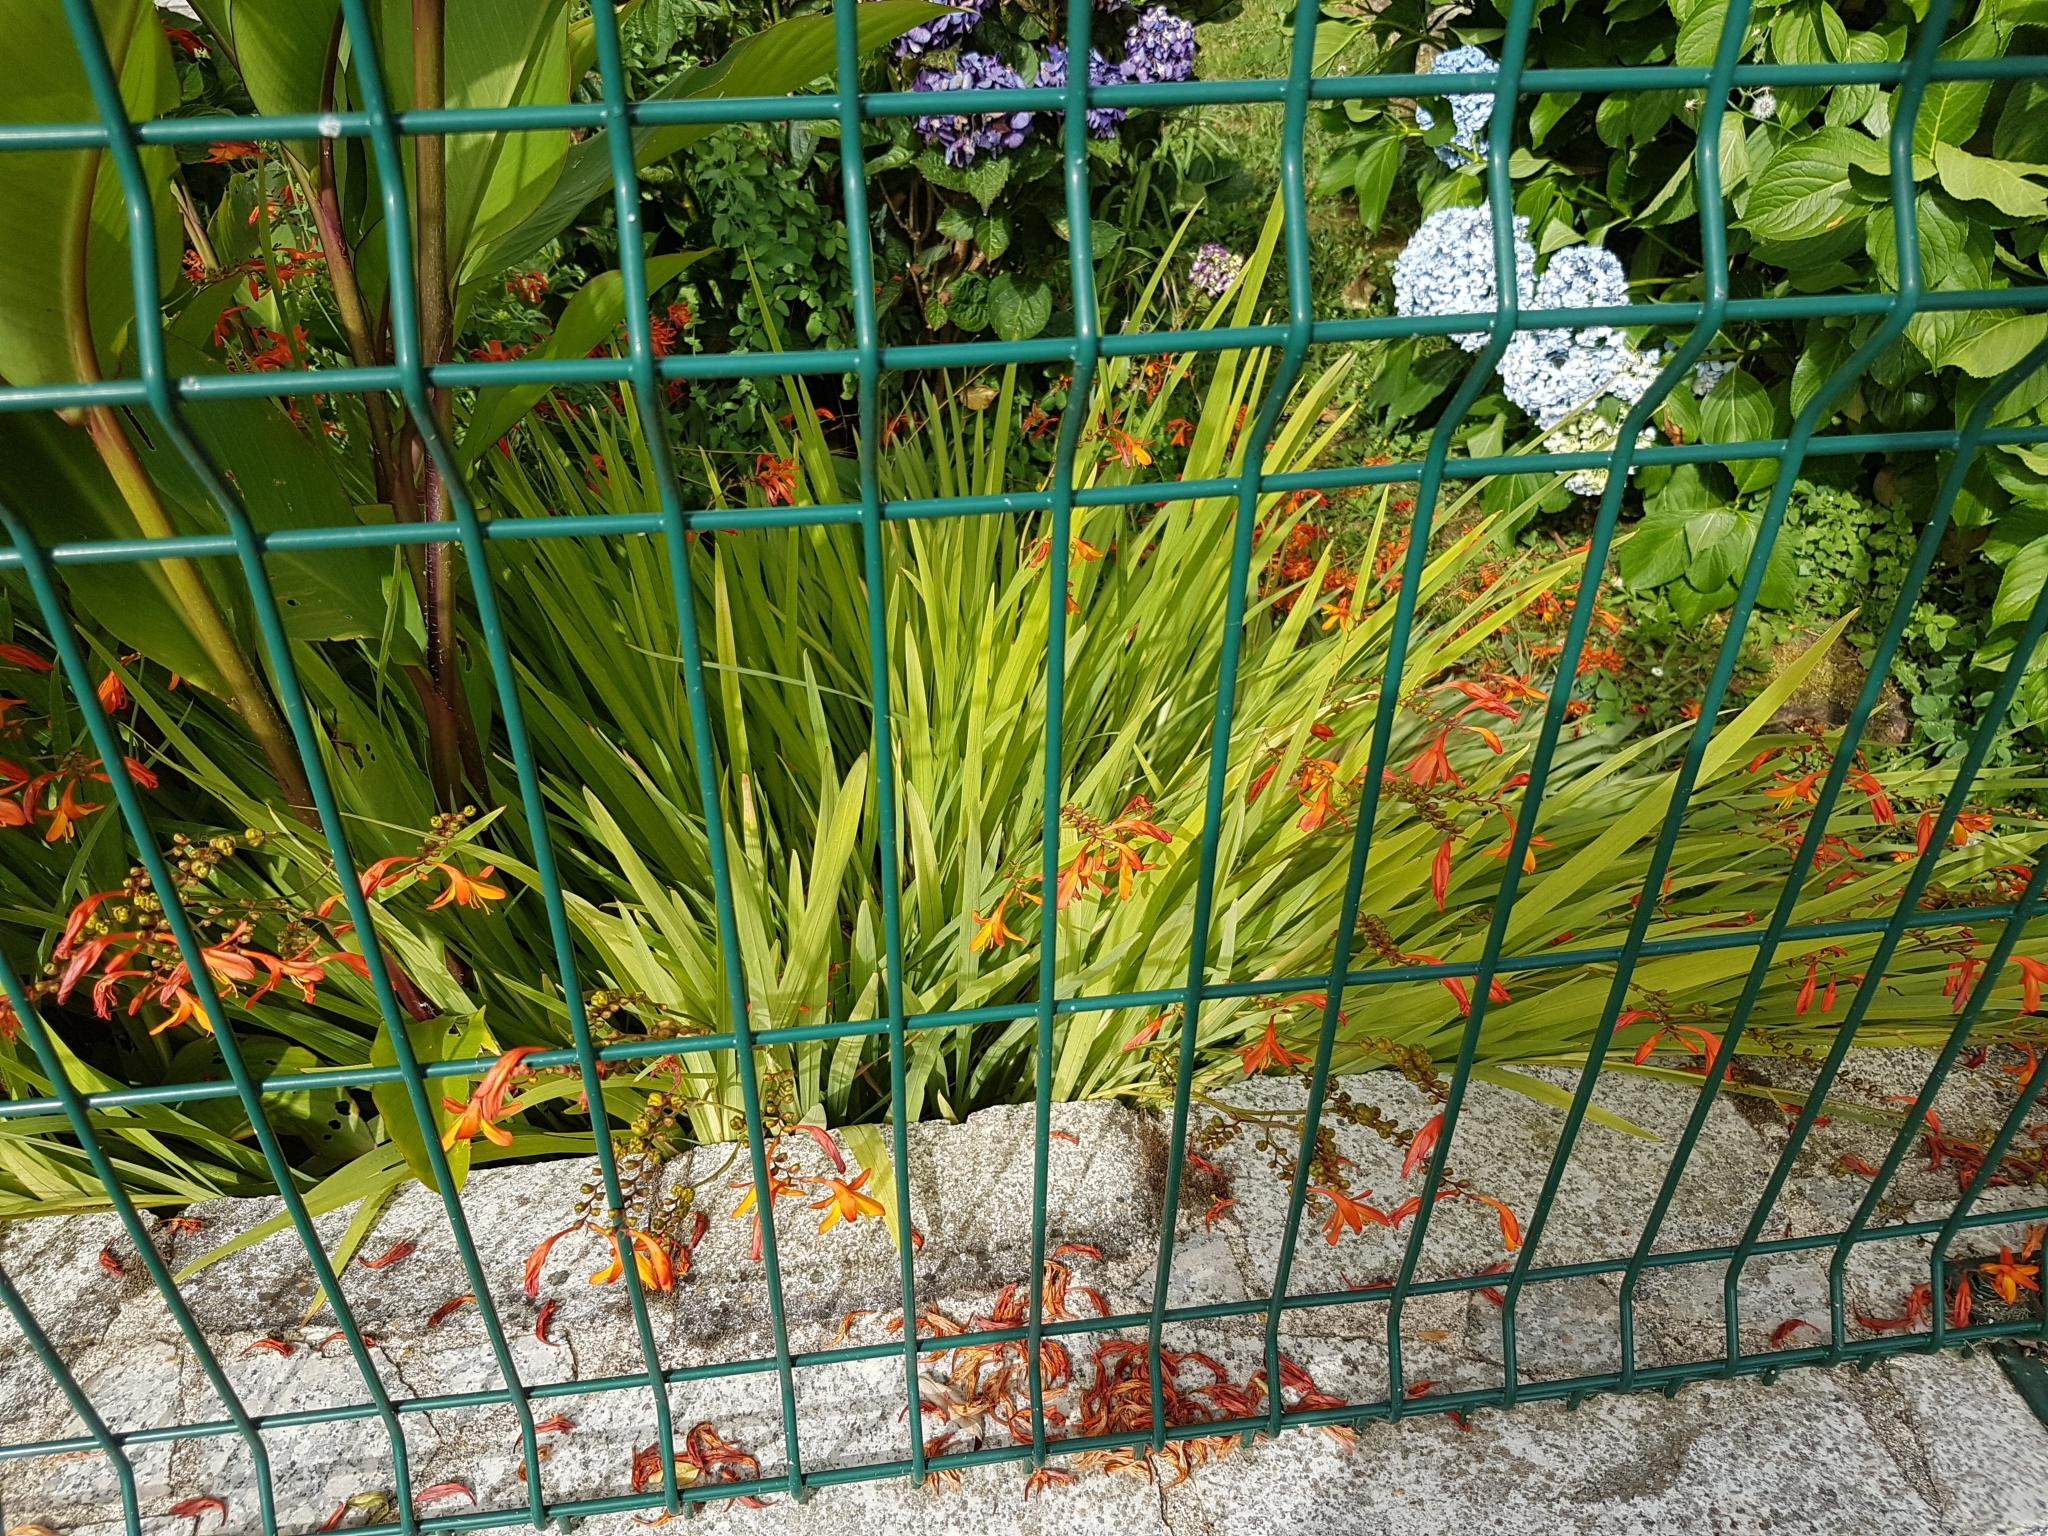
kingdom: Plantae
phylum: Tracheophyta
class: Liliopsida
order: Asparagales
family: Iridaceae
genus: Crocosmia
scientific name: Crocosmia crocosmiiflora
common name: Montbretia
